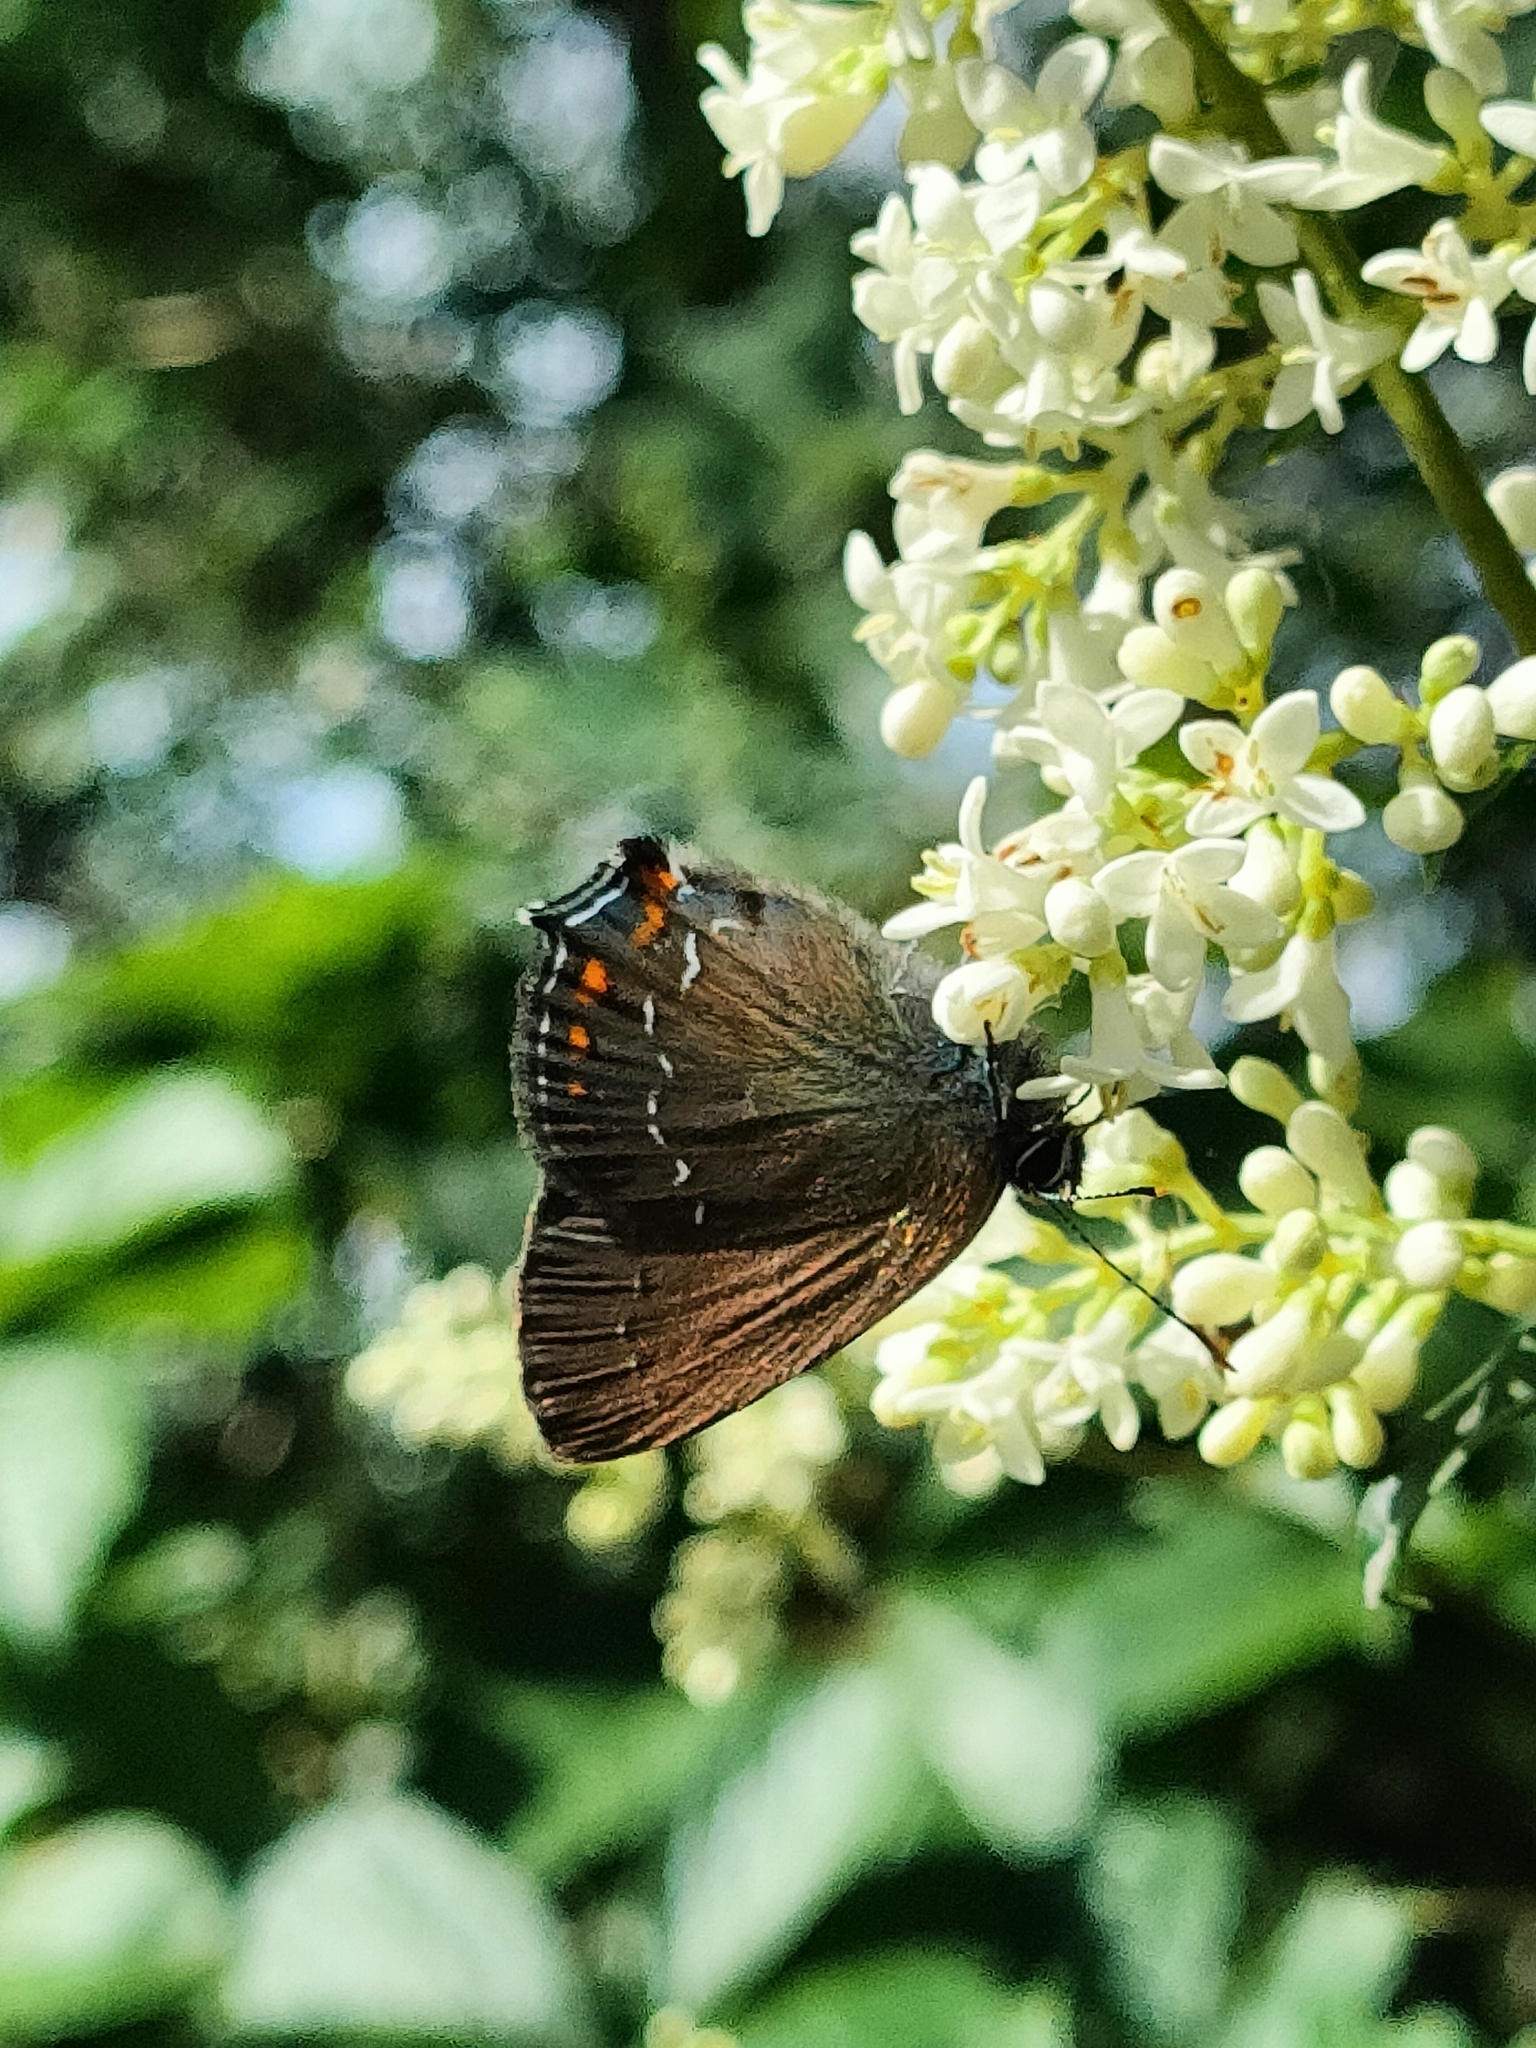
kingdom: Animalia
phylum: Arthropoda
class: Insecta
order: Lepidoptera
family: Lycaenidae
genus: Nordmannia
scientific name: Nordmannia ilicis
